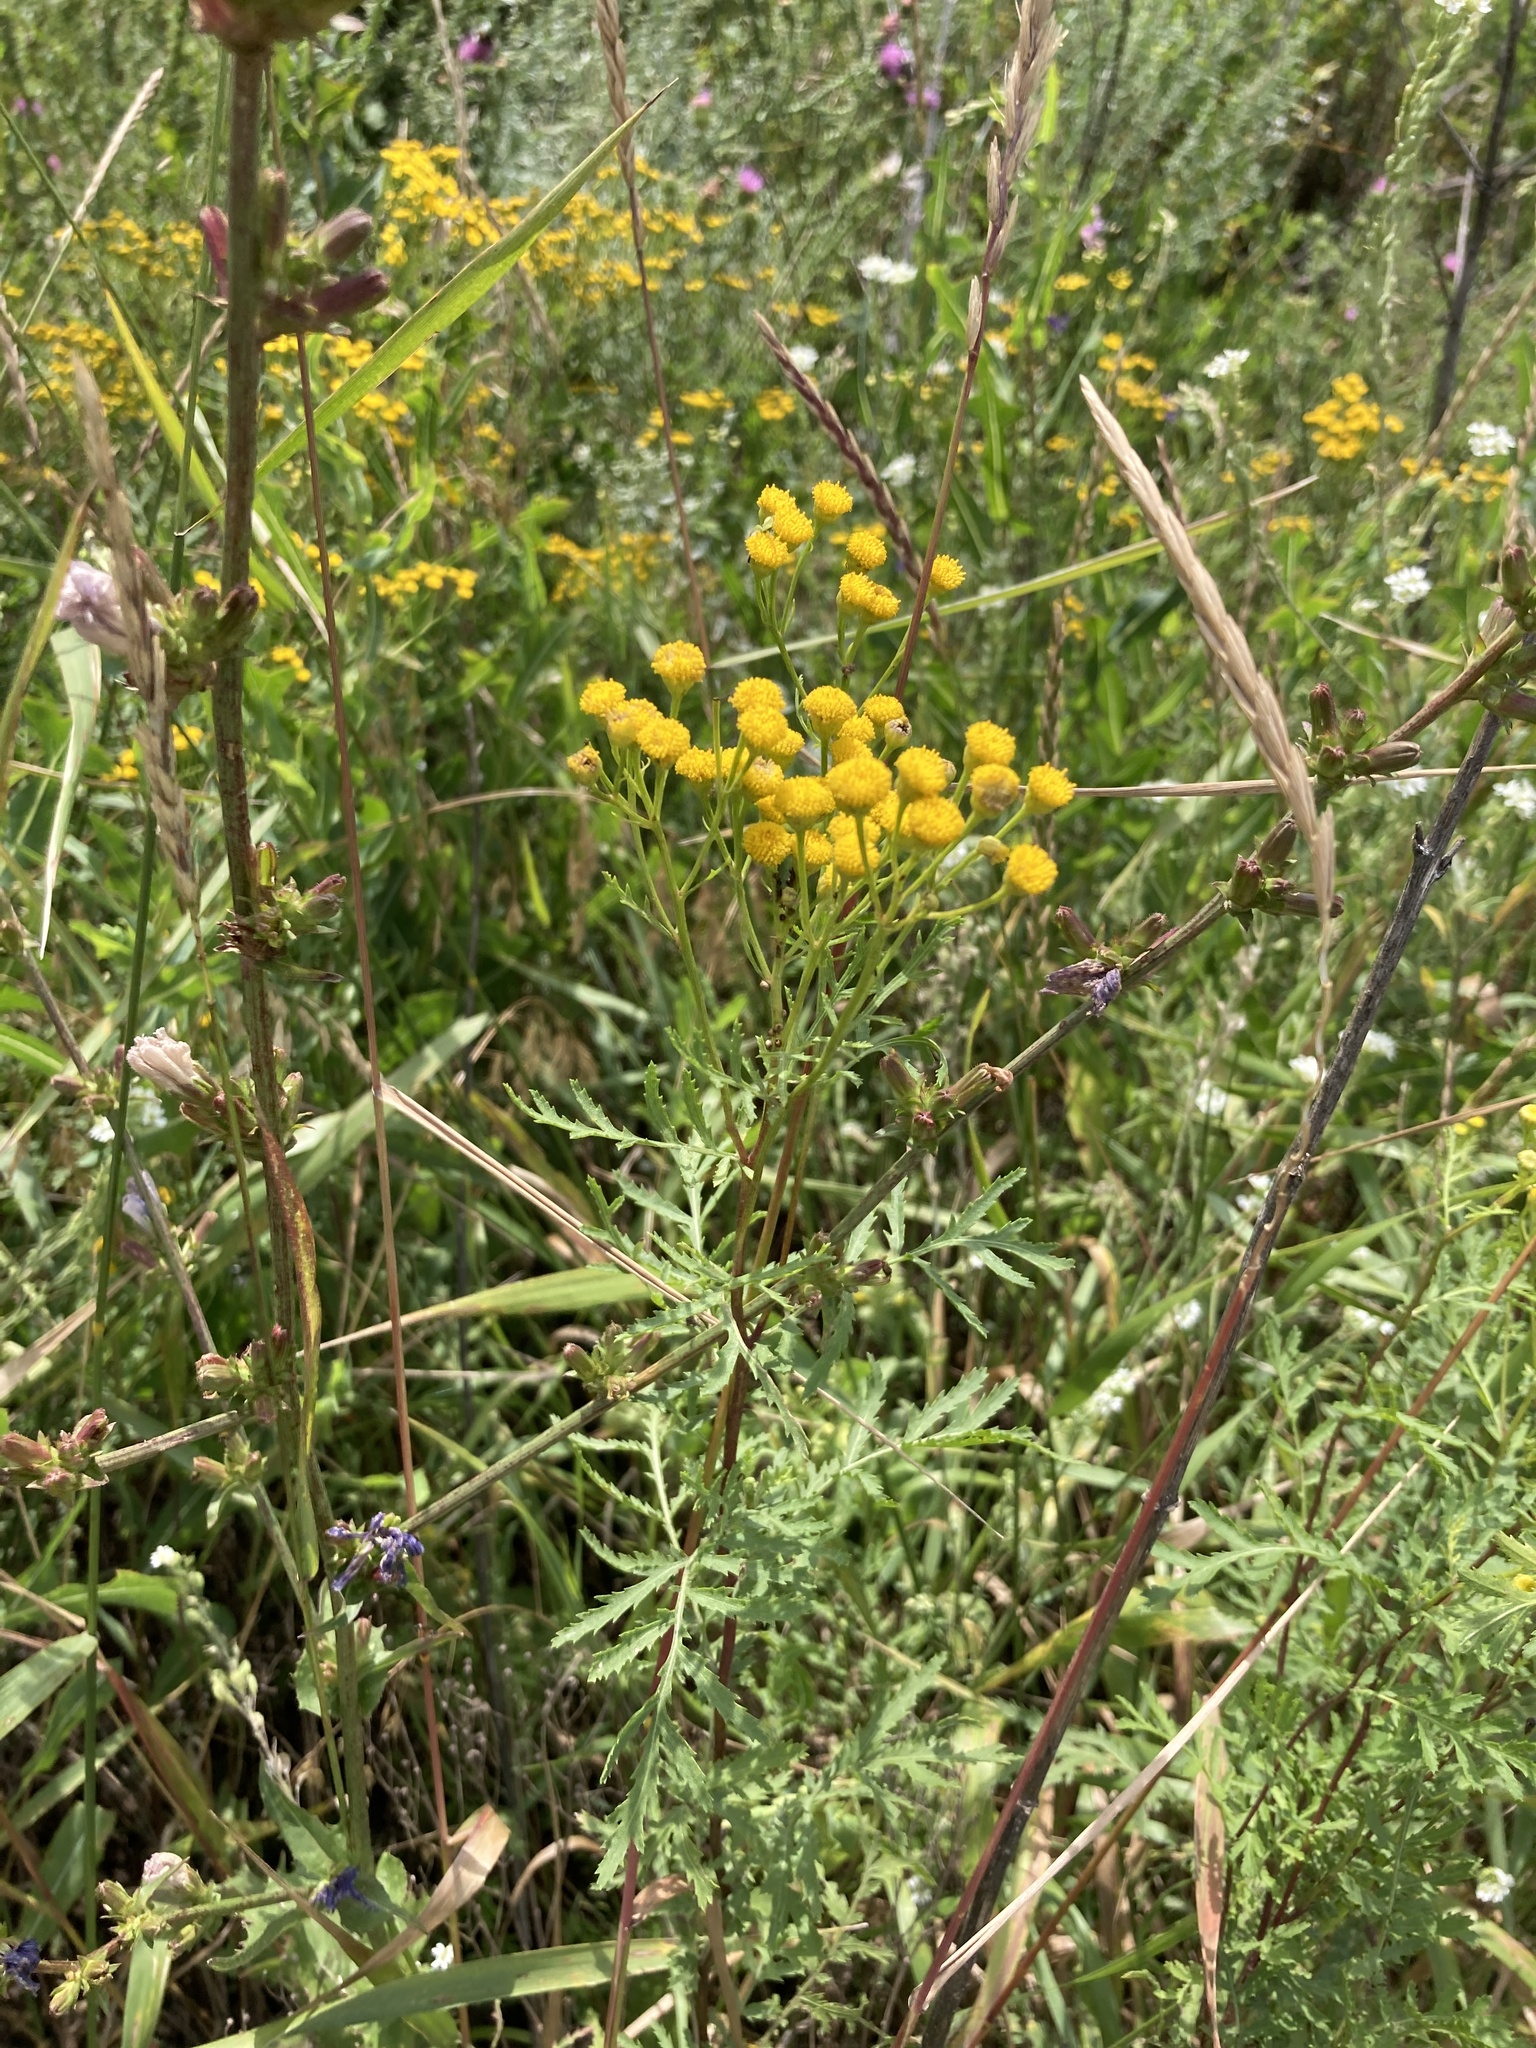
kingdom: Plantae
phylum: Tracheophyta
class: Magnoliopsida
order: Asterales
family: Asteraceae
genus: Tanacetum
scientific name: Tanacetum vulgare
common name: Common tansy
